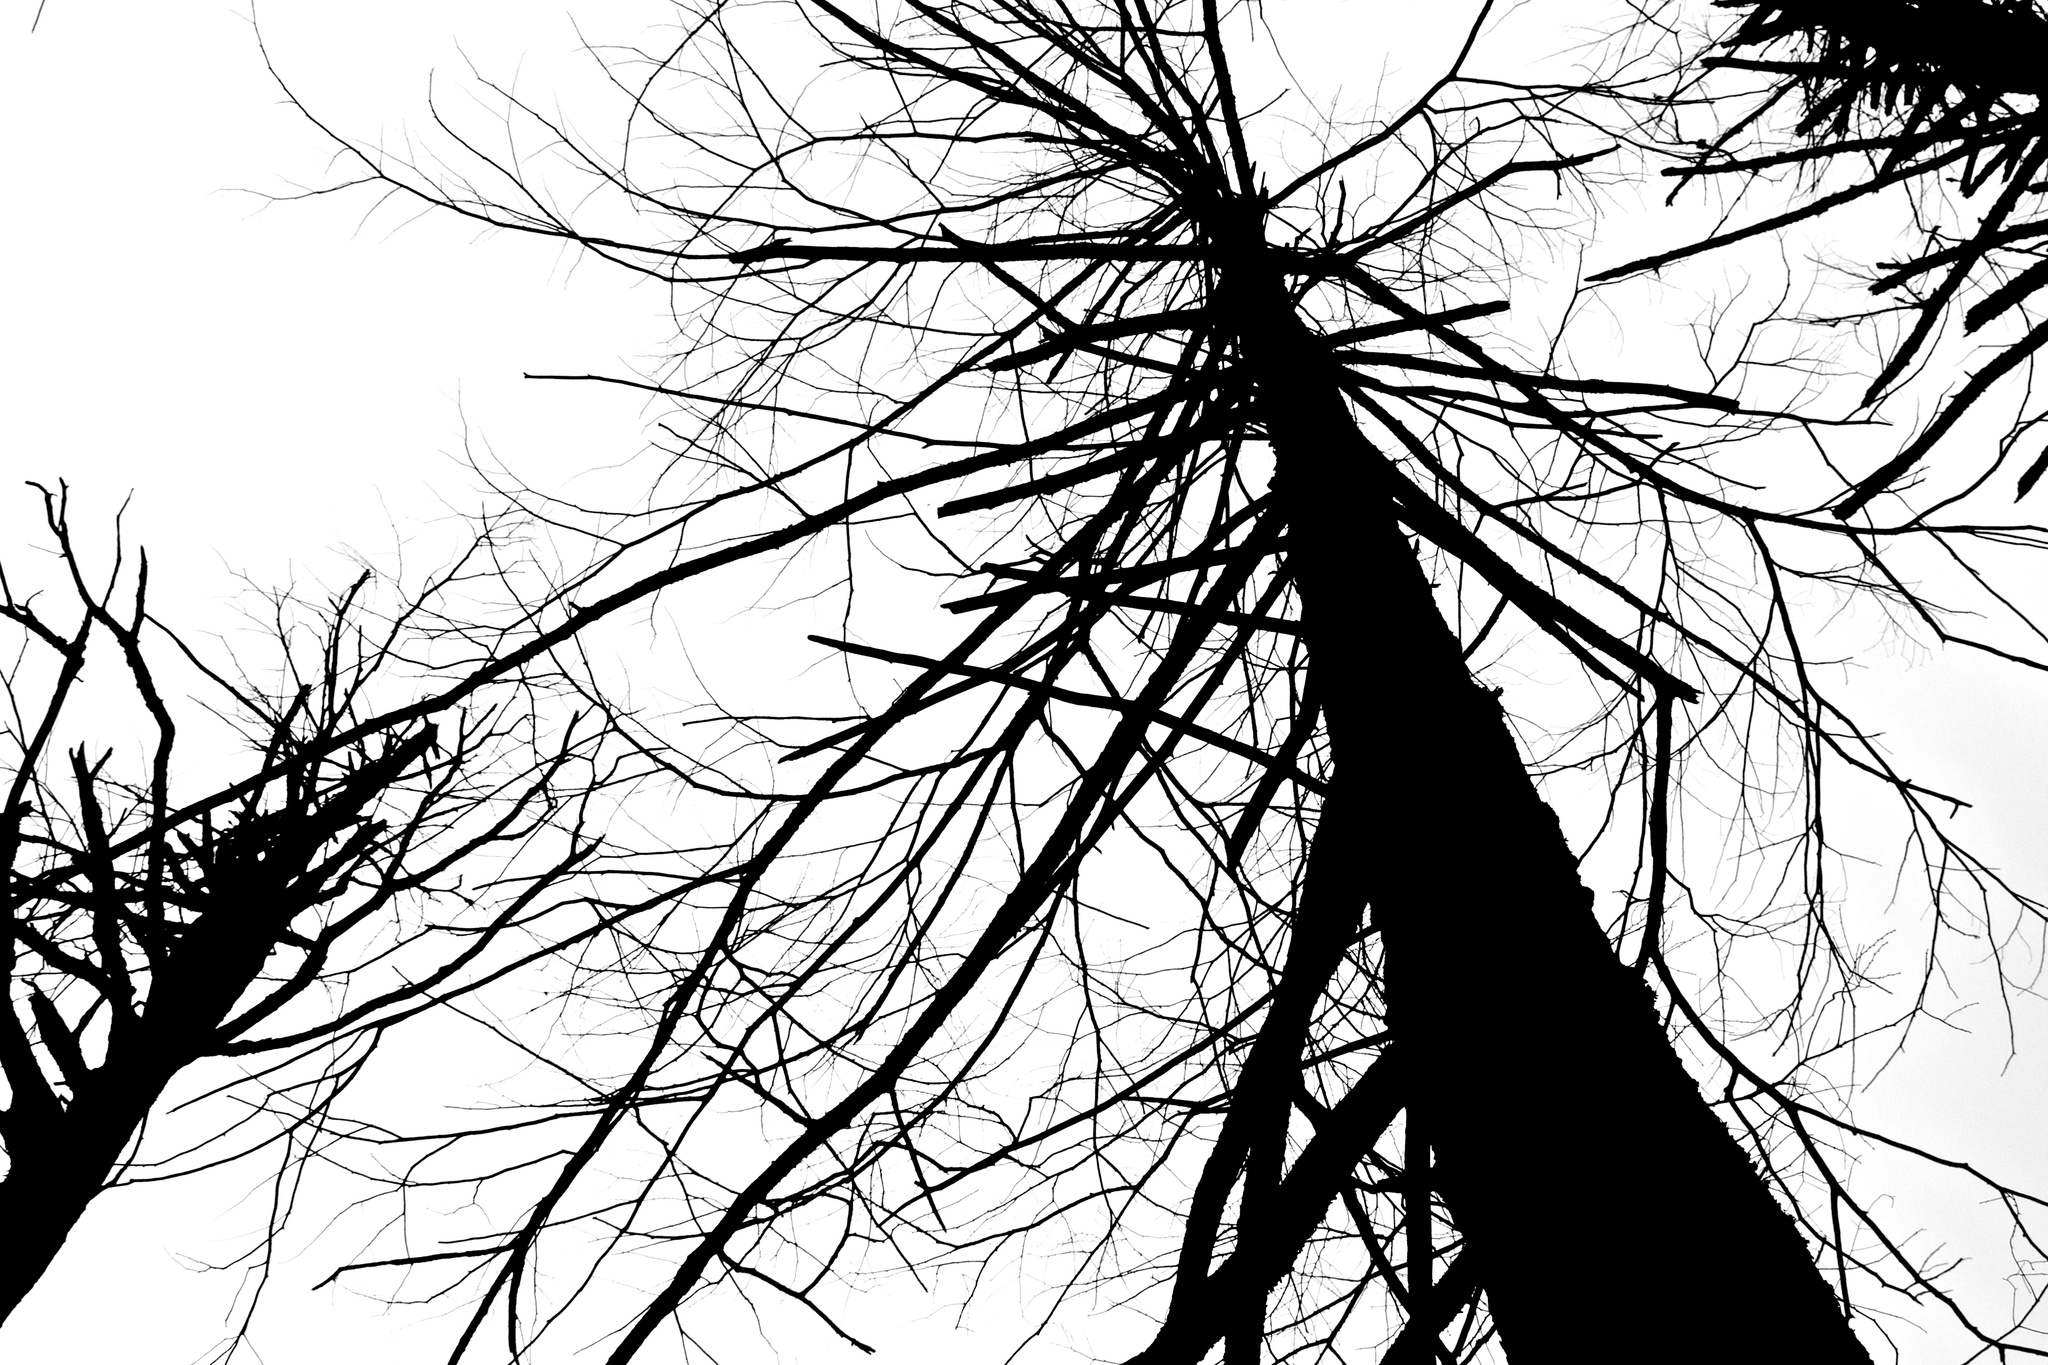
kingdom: Plantae
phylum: Tracheophyta
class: Pinopsida
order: Pinales
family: Pinaceae
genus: Tsuga
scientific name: Tsuga canadensis
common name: Eastern hemlock
